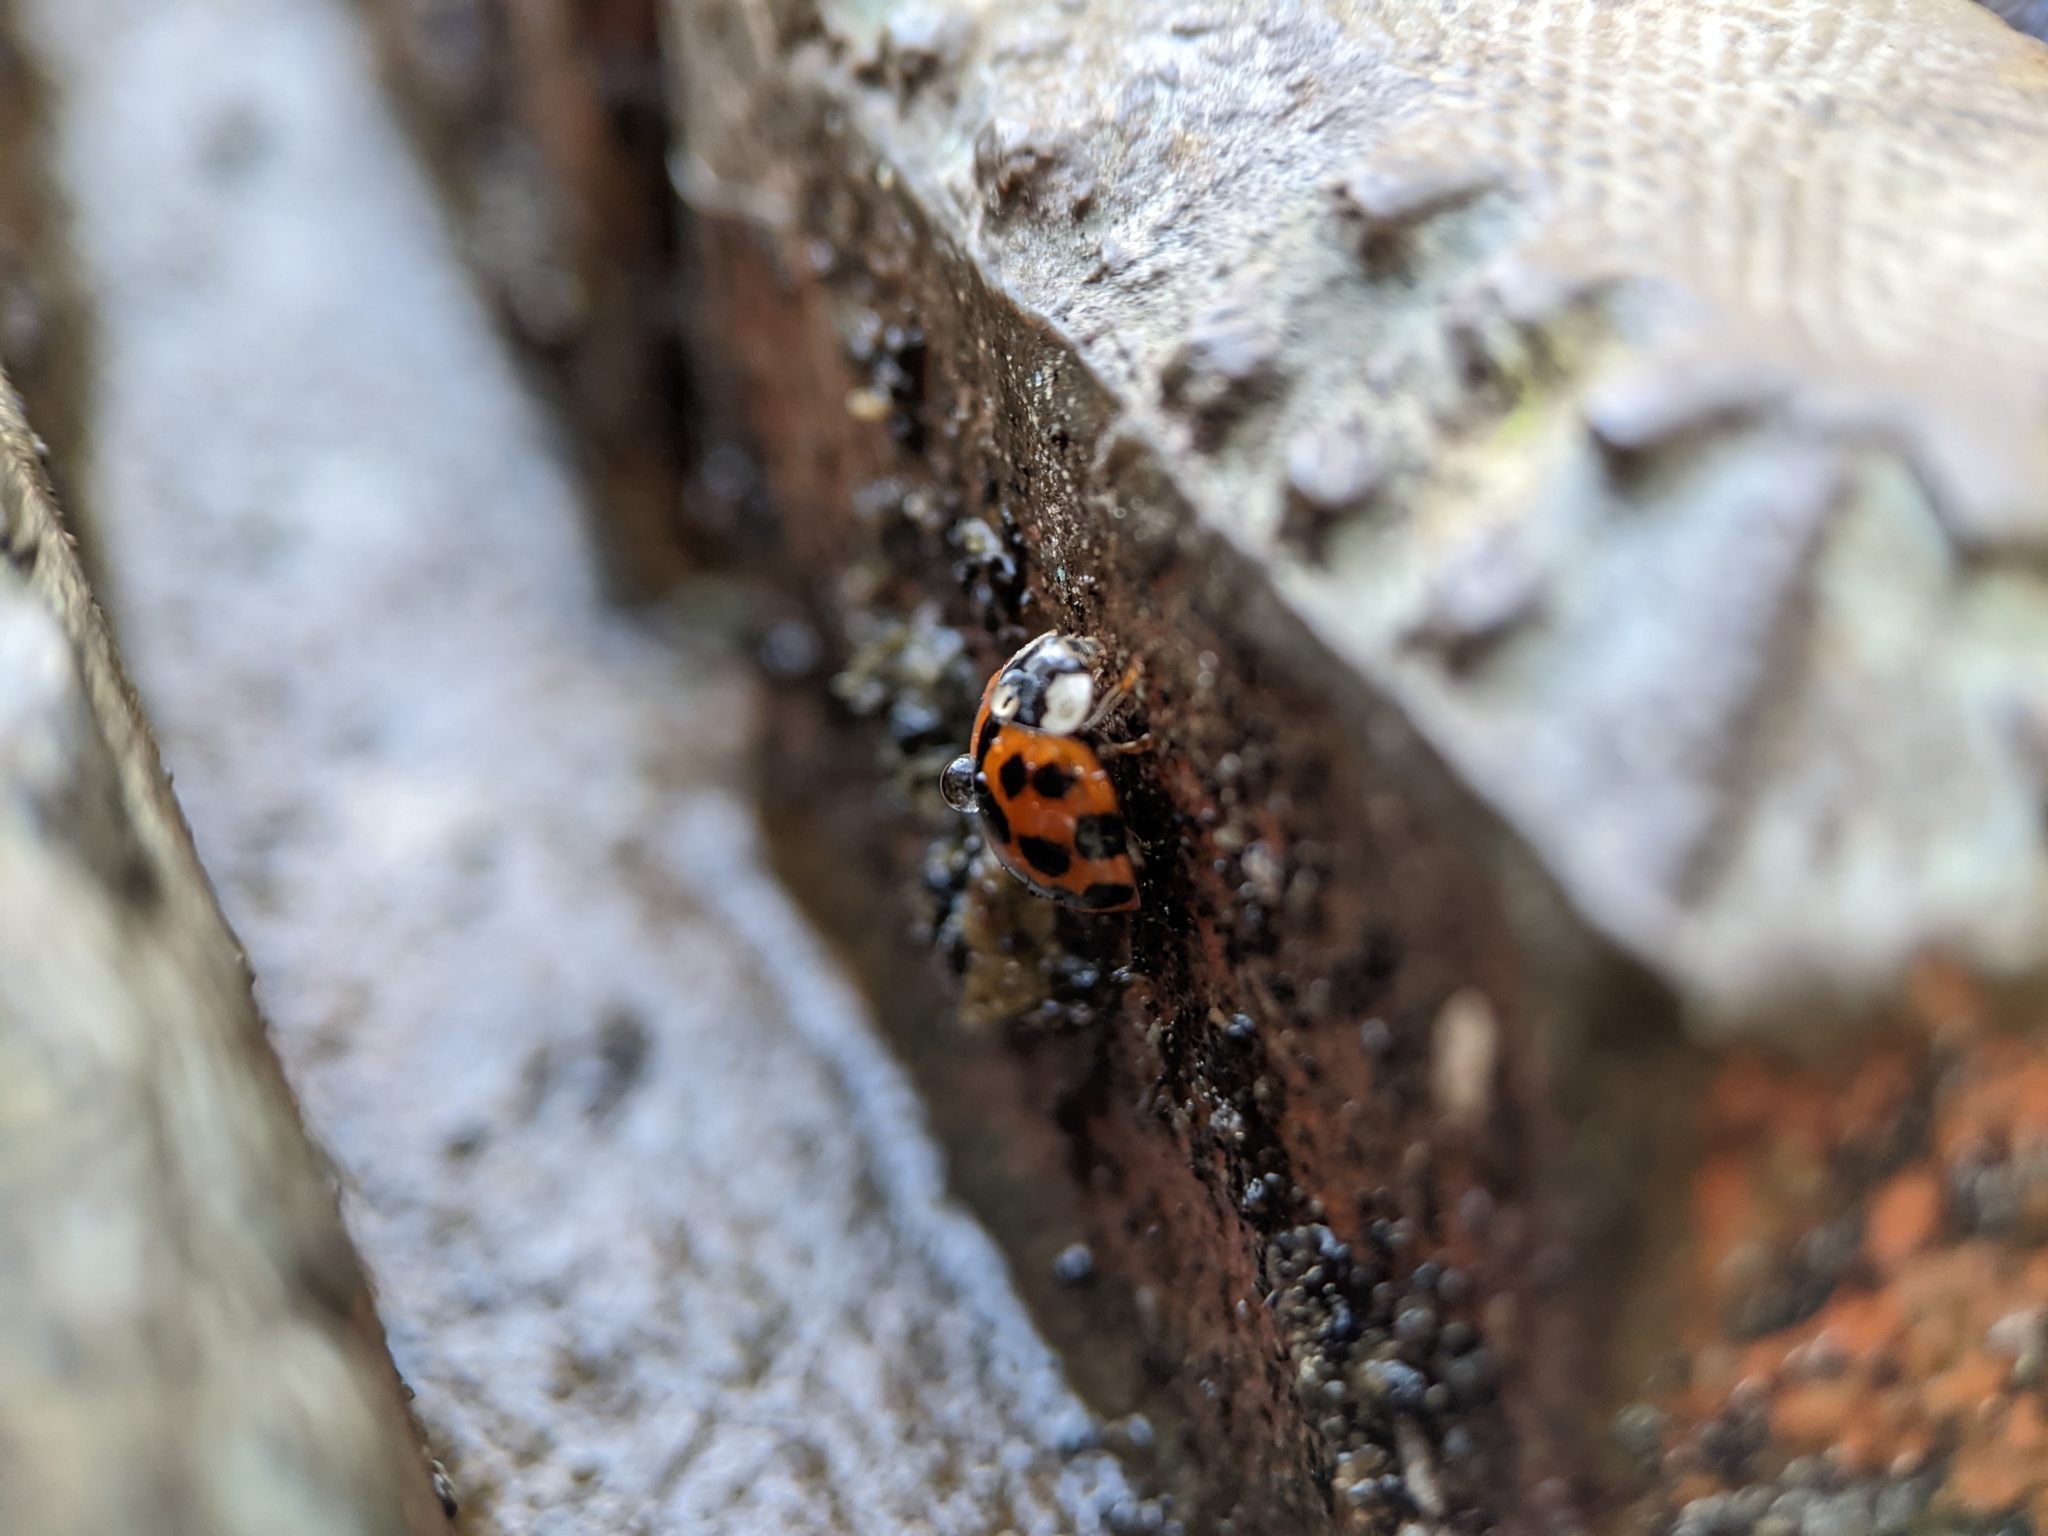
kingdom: Animalia
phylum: Arthropoda
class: Insecta
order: Coleoptera
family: Coccinellidae
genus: Harmonia
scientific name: Harmonia axyridis
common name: Harlequin ladybird
